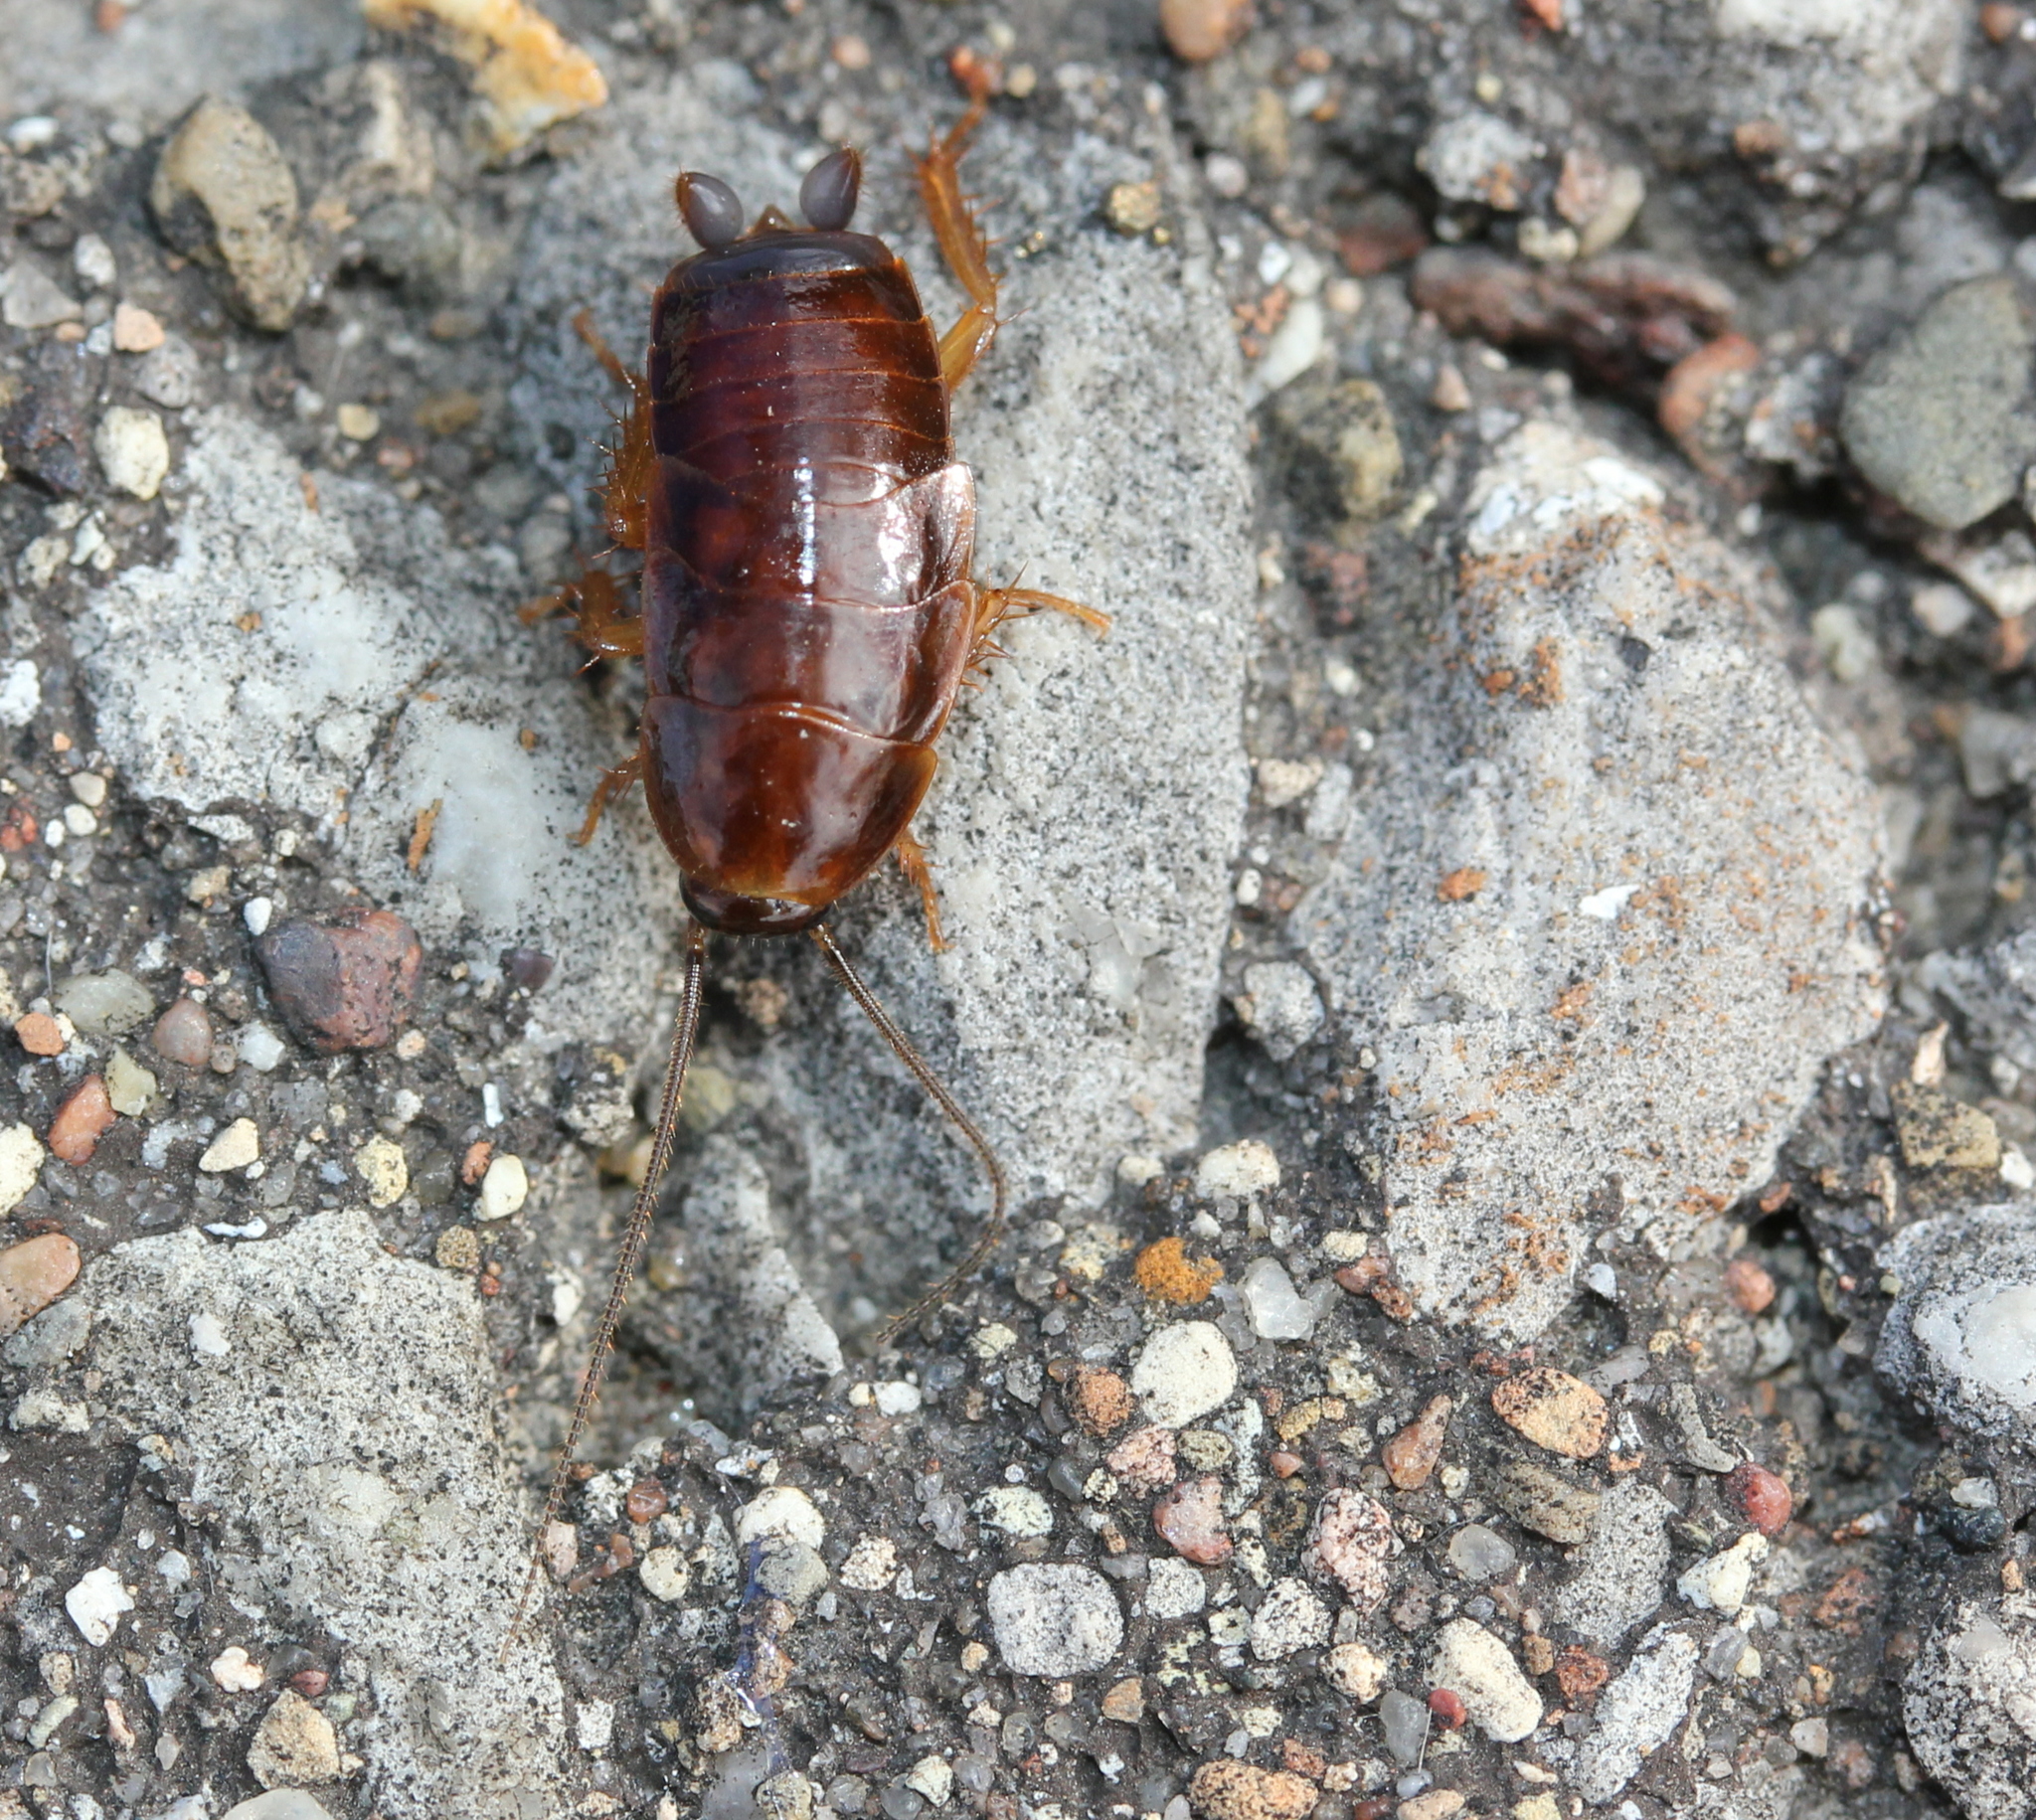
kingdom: Animalia
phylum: Arthropoda
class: Insecta
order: Blattodea
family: Ectobiidae
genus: Parcoblatta
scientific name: Parcoblatta virginica
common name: Virginia wood cockroach
